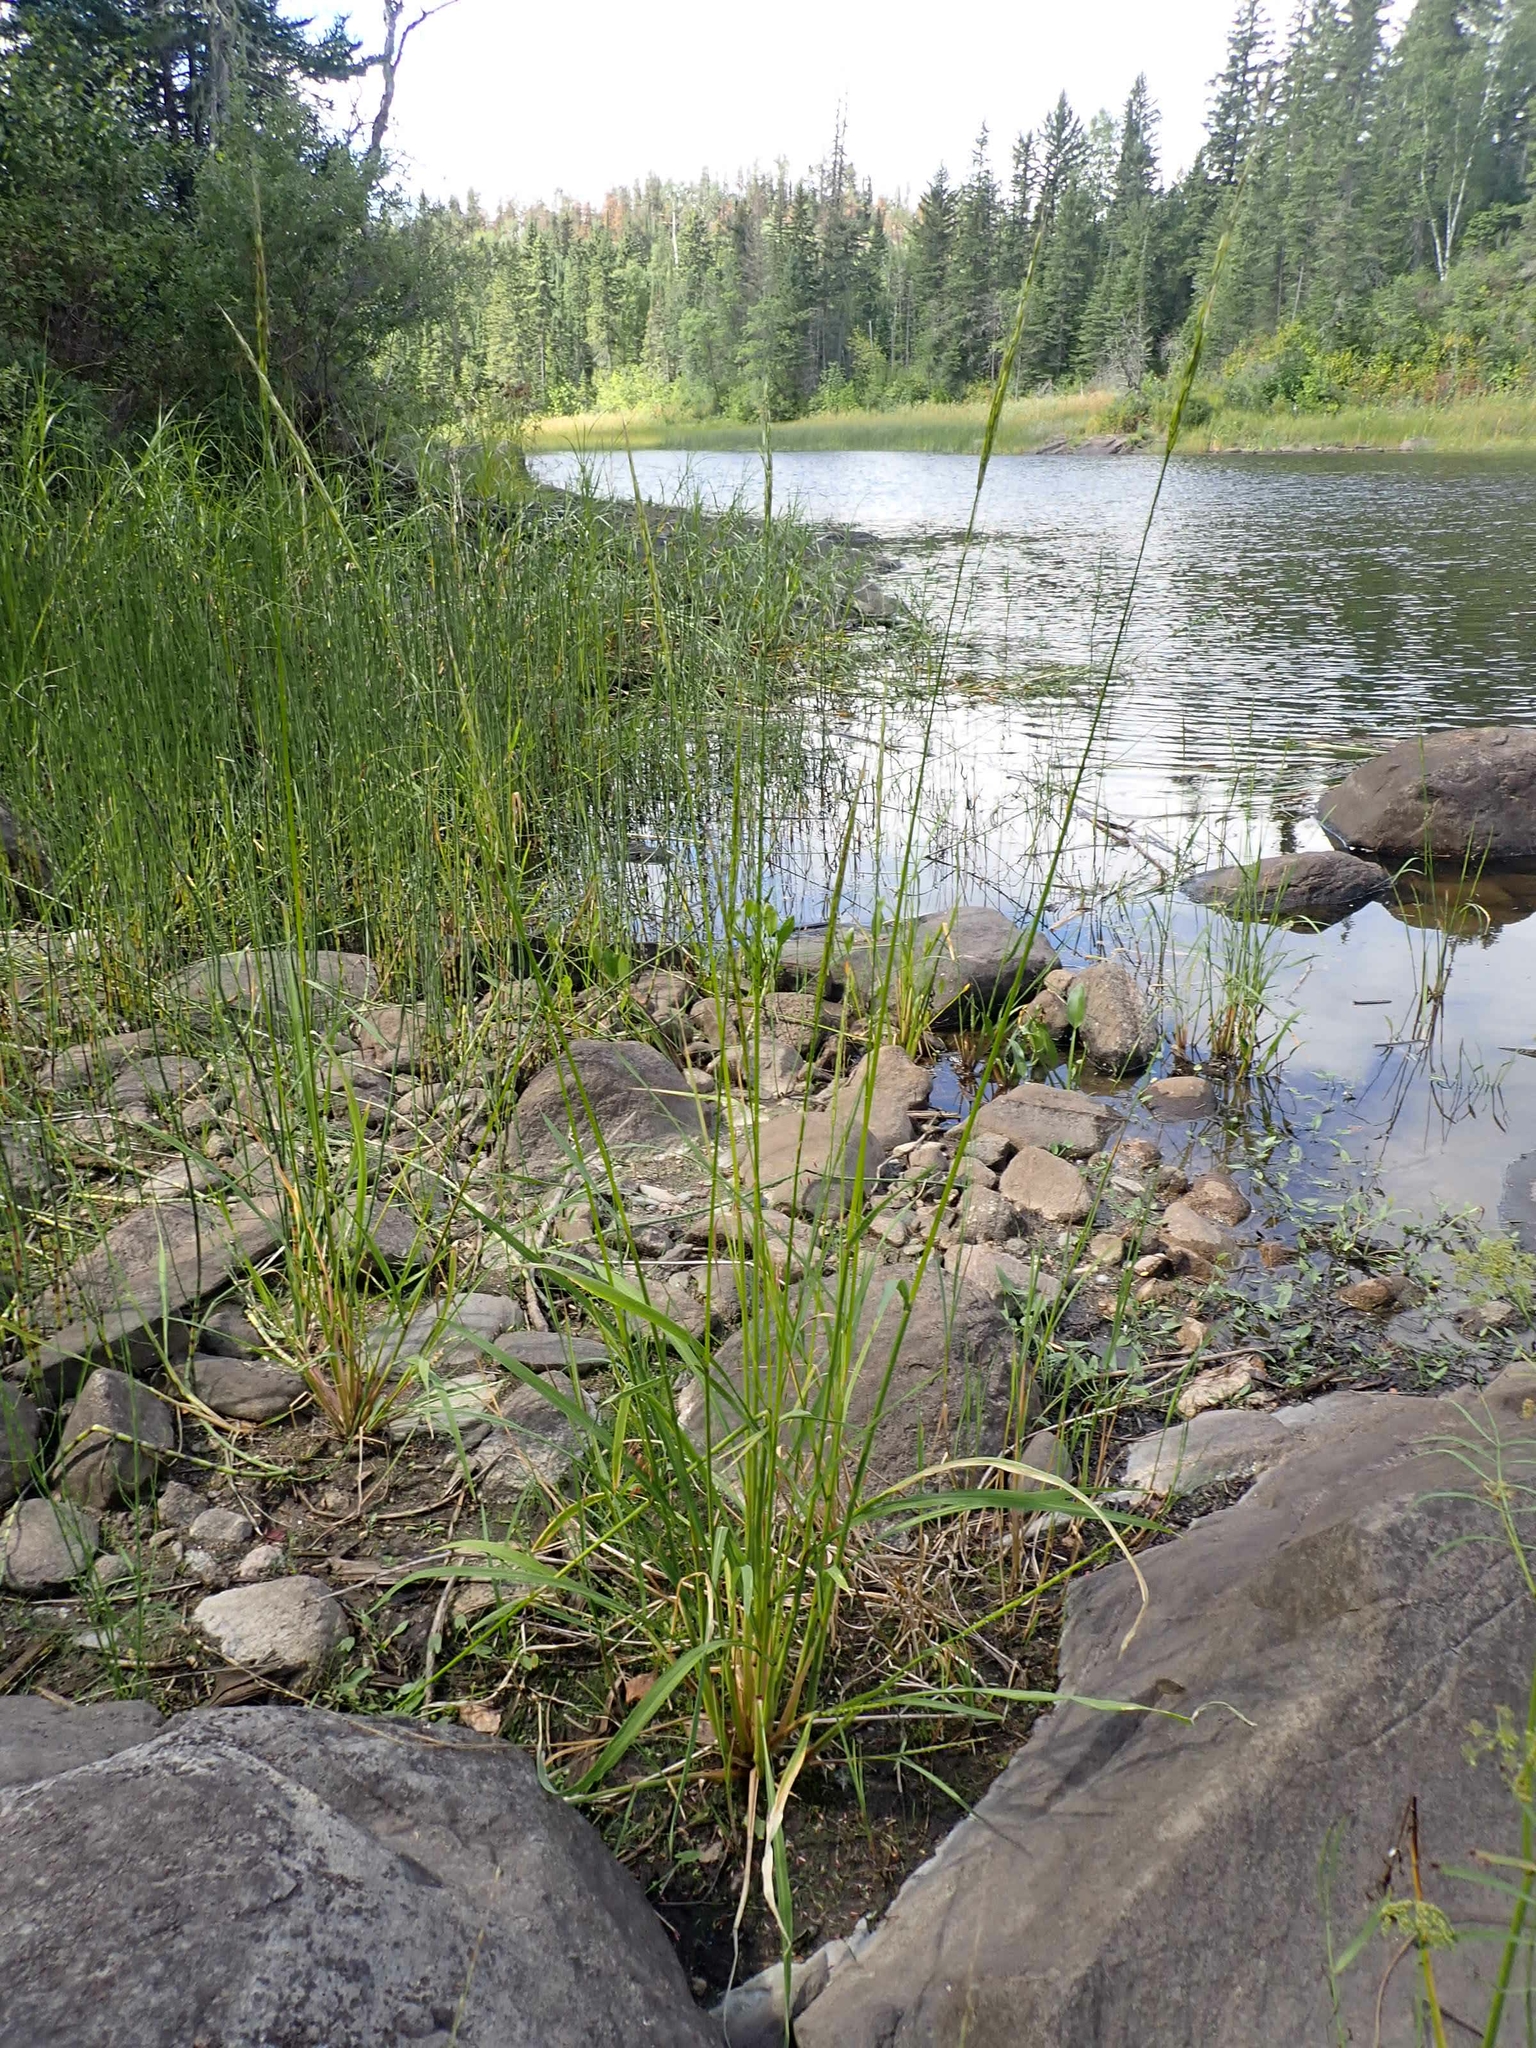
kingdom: Plantae
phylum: Tracheophyta
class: Liliopsida
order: Poales
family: Poaceae
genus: Zizania
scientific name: Zizania aquatica
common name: Annual wildrice
